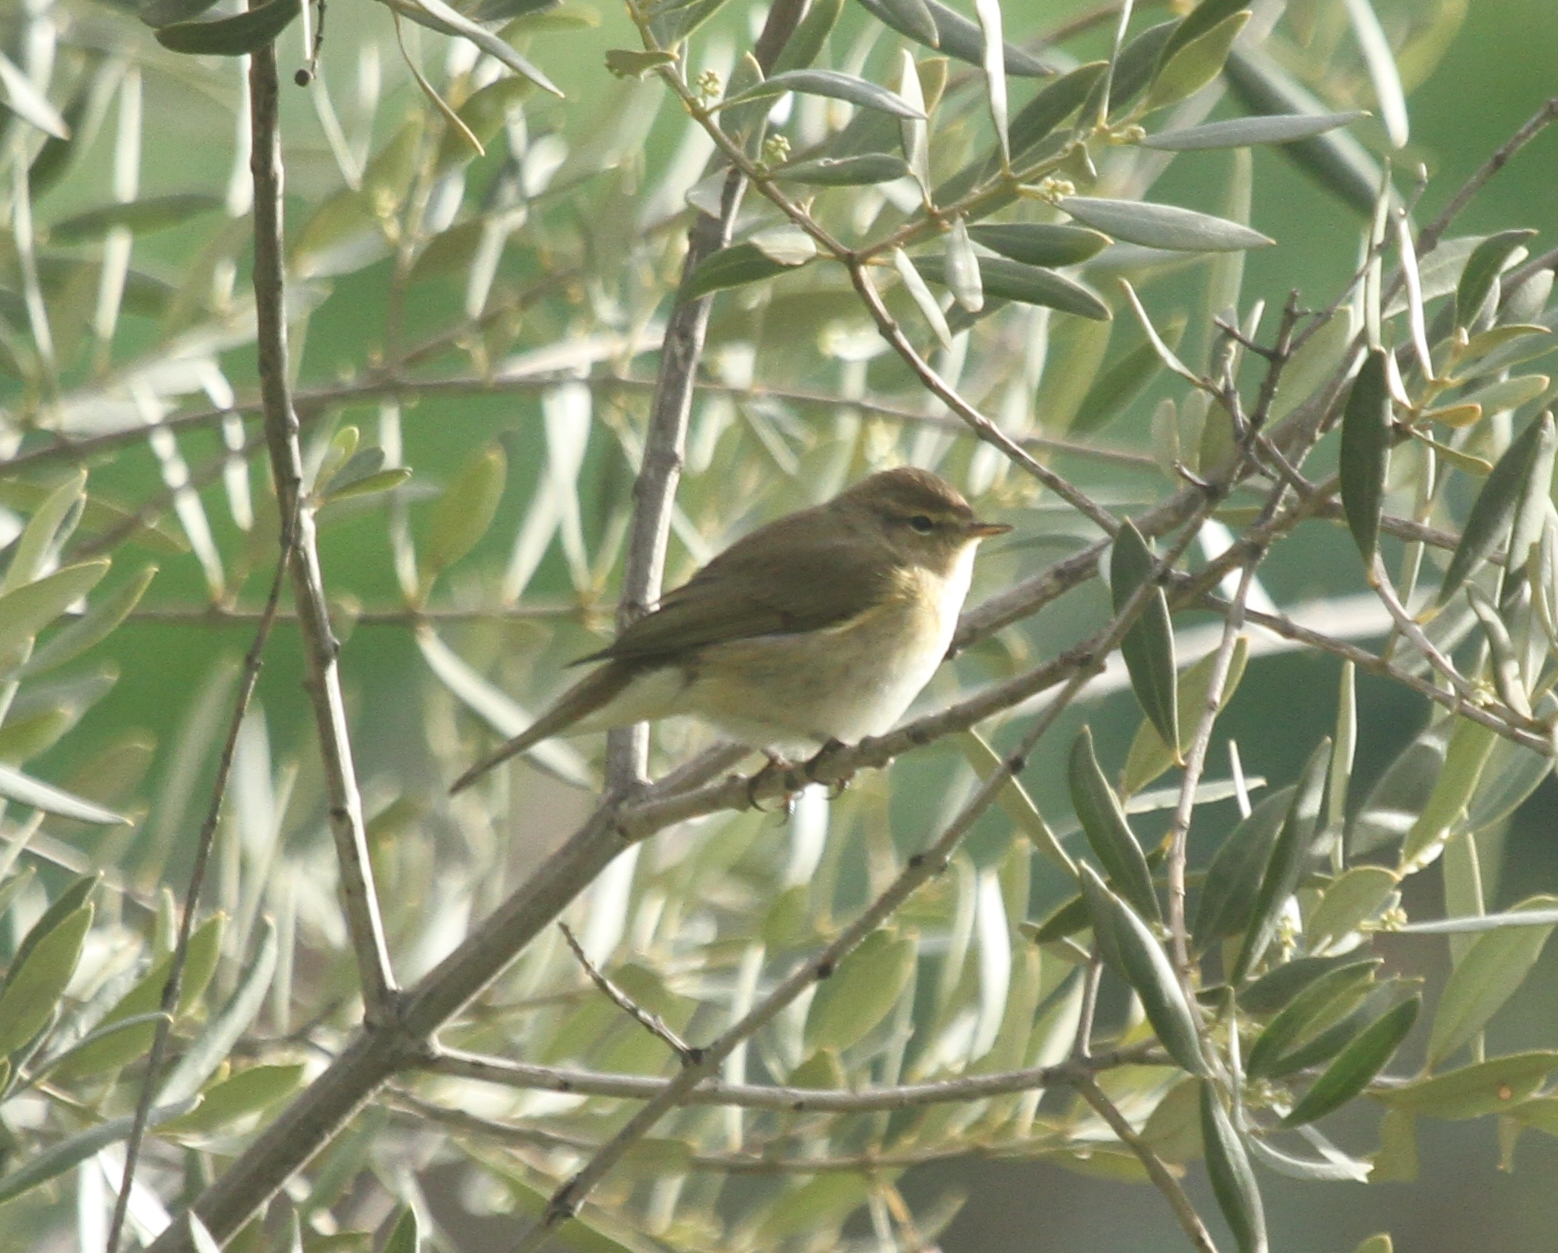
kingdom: Animalia
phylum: Chordata
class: Aves
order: Passeriformes
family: Phylloscopidae
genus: Phylloscopus
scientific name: Phylloscopus collybita
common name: Common chiffchaff
